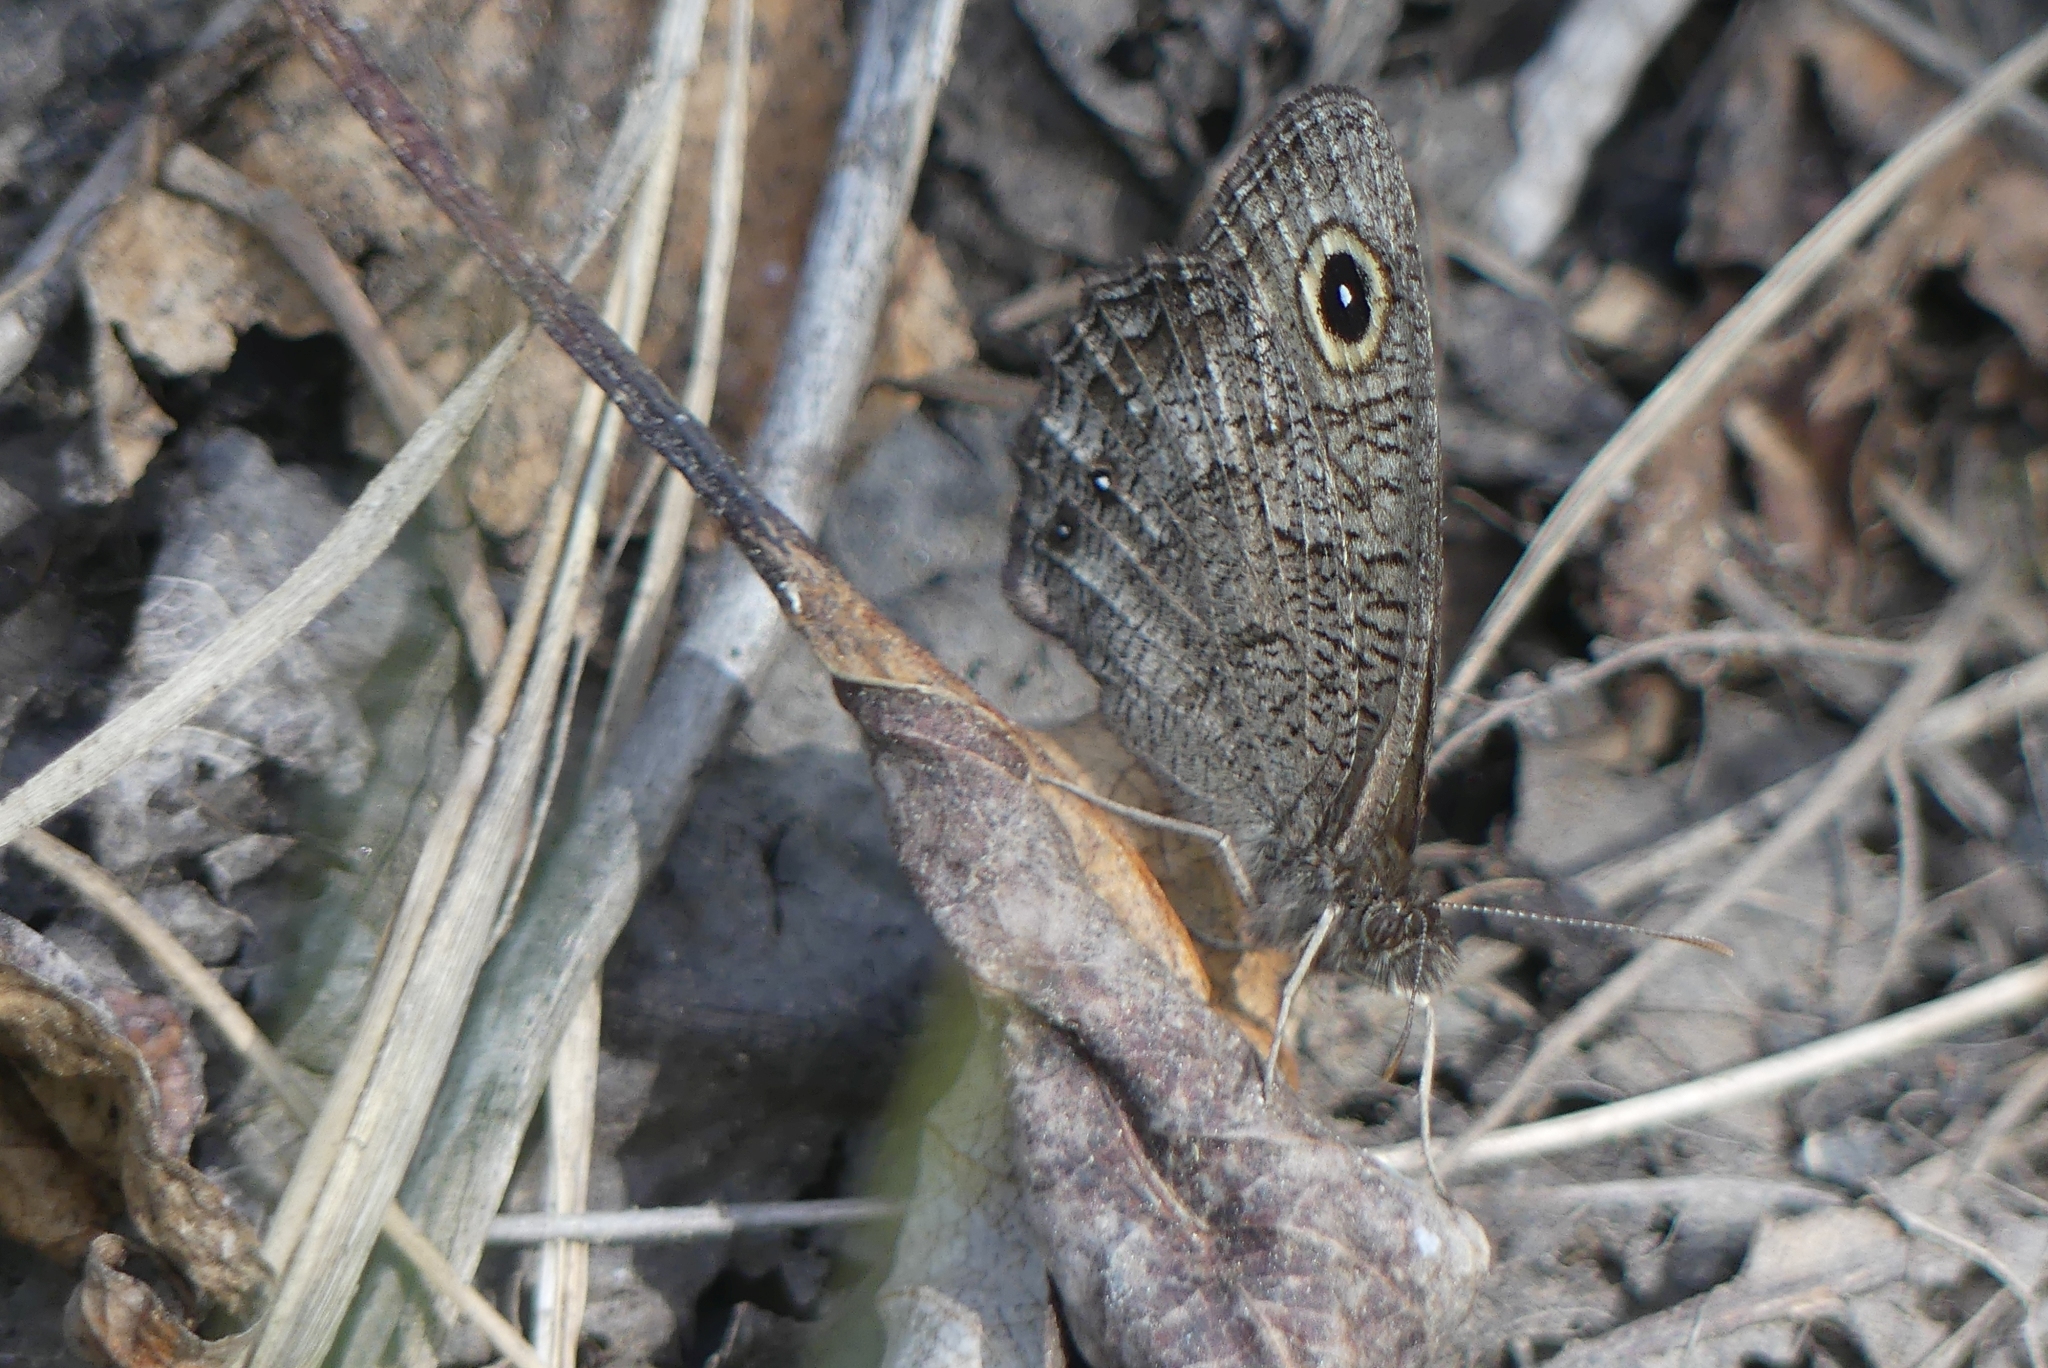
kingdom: Animalia
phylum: Arthropoda
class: Insecta
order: Lepidoptera
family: Nymphalidae
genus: Cercyonis
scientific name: Cercyonis sthenele
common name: Great basin wood-nymph
